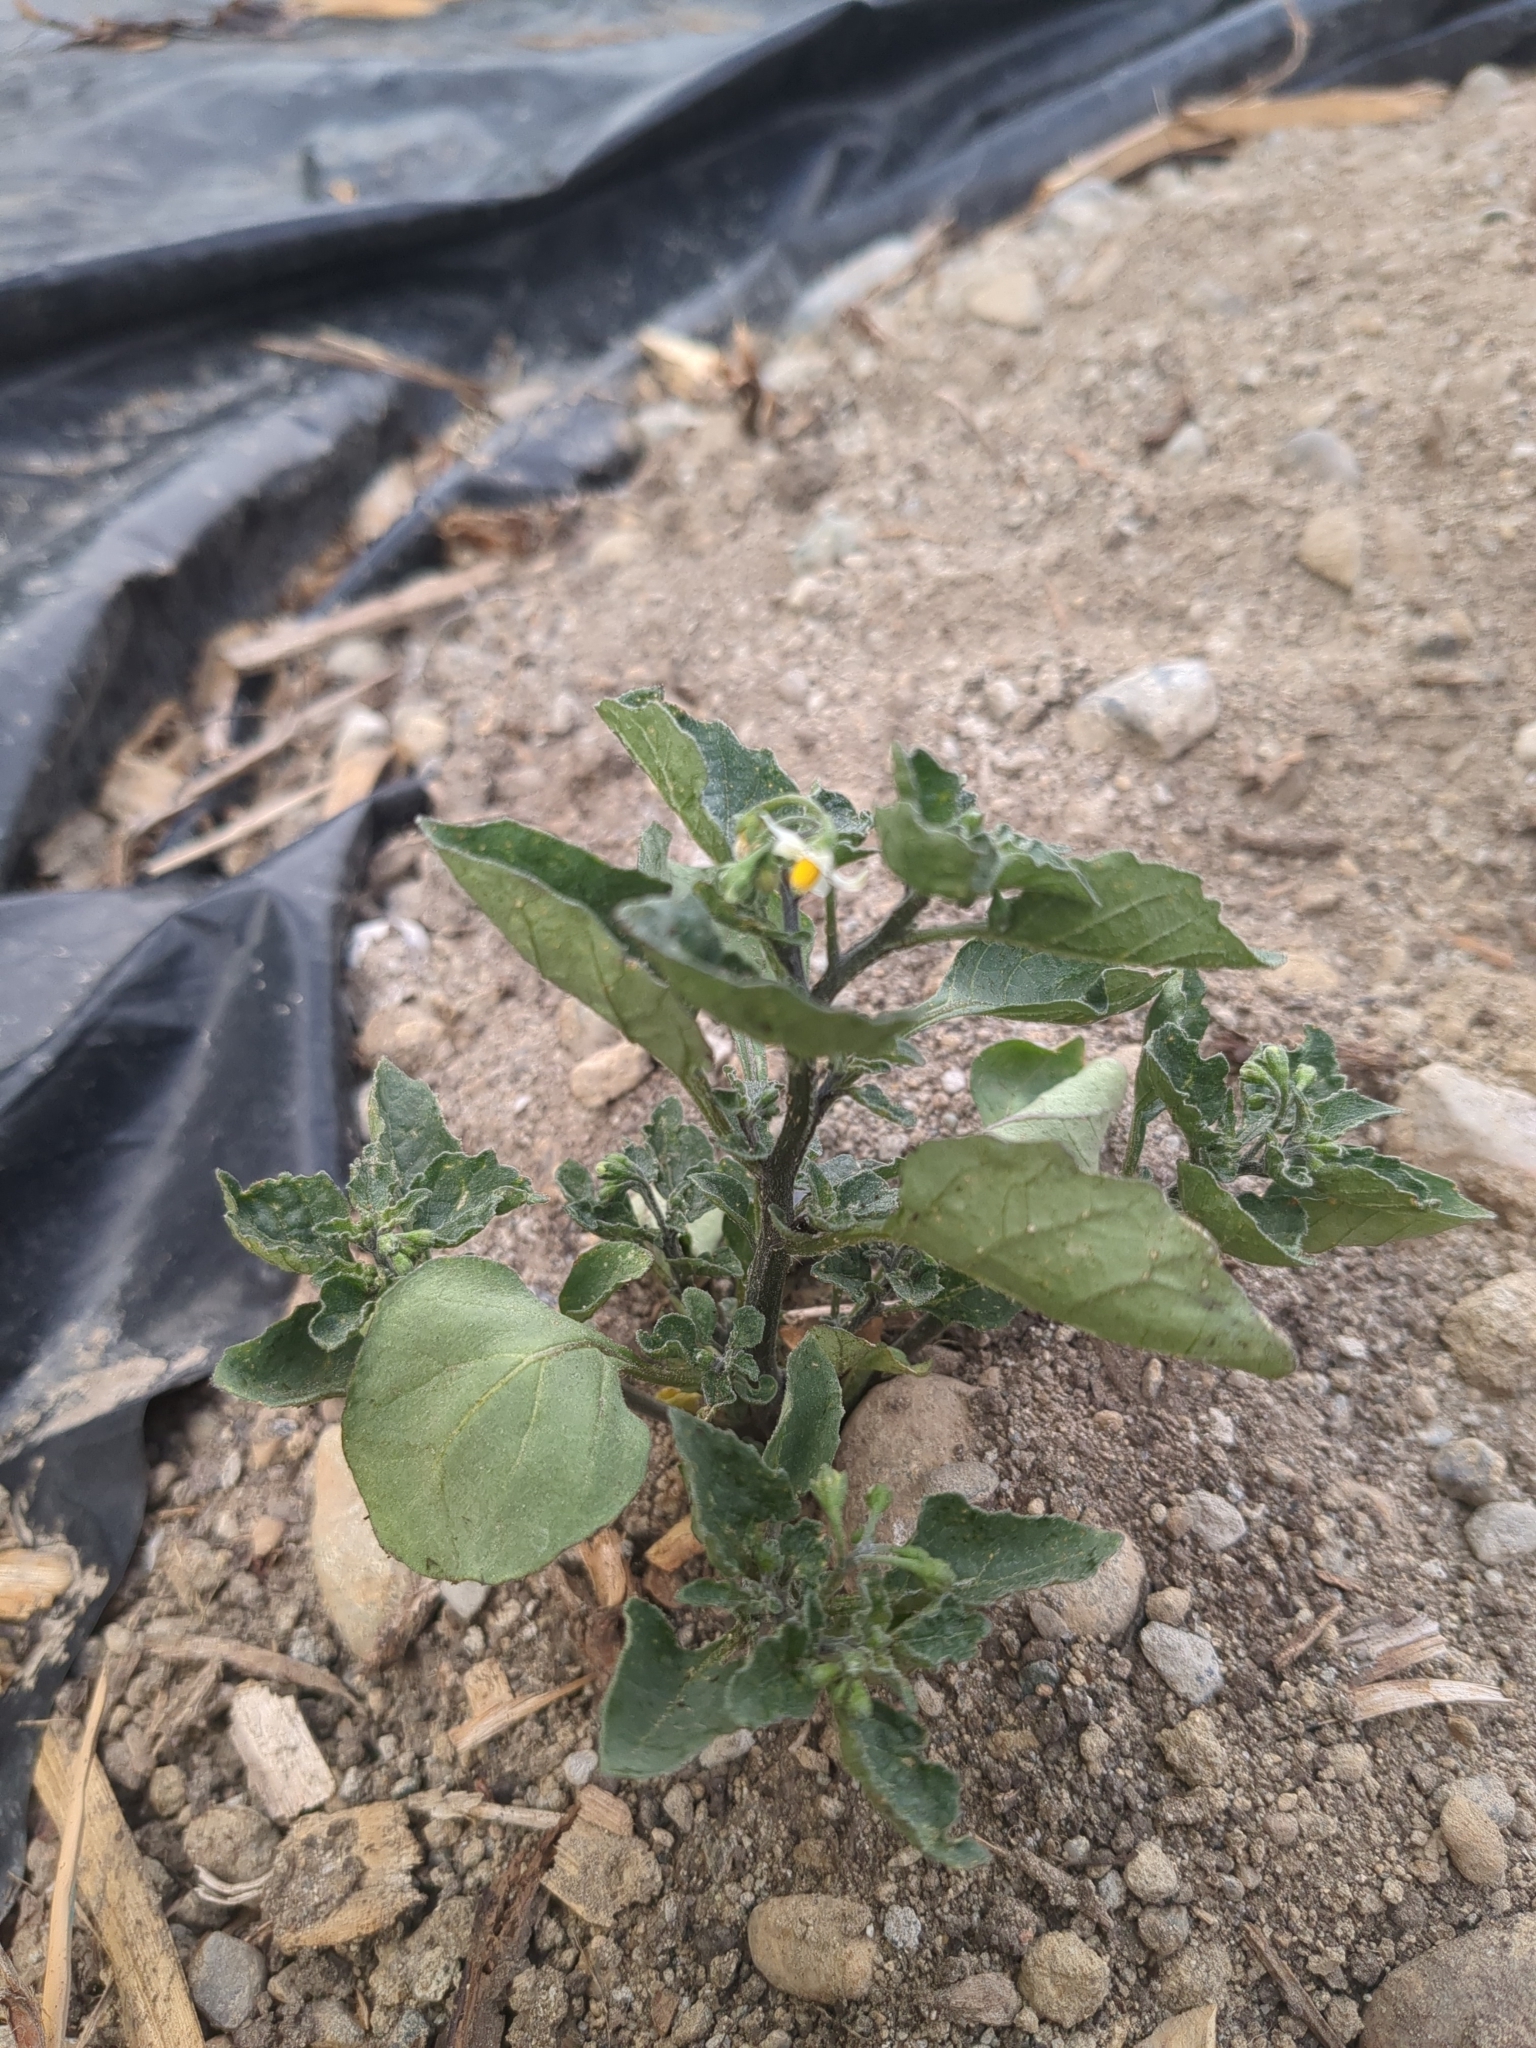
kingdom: Plantae
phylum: Tracheophyta
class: Magnoliopsida
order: Solanales
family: Solanaceae
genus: Solanum
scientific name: Solanum nigrum
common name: Black nightshade
